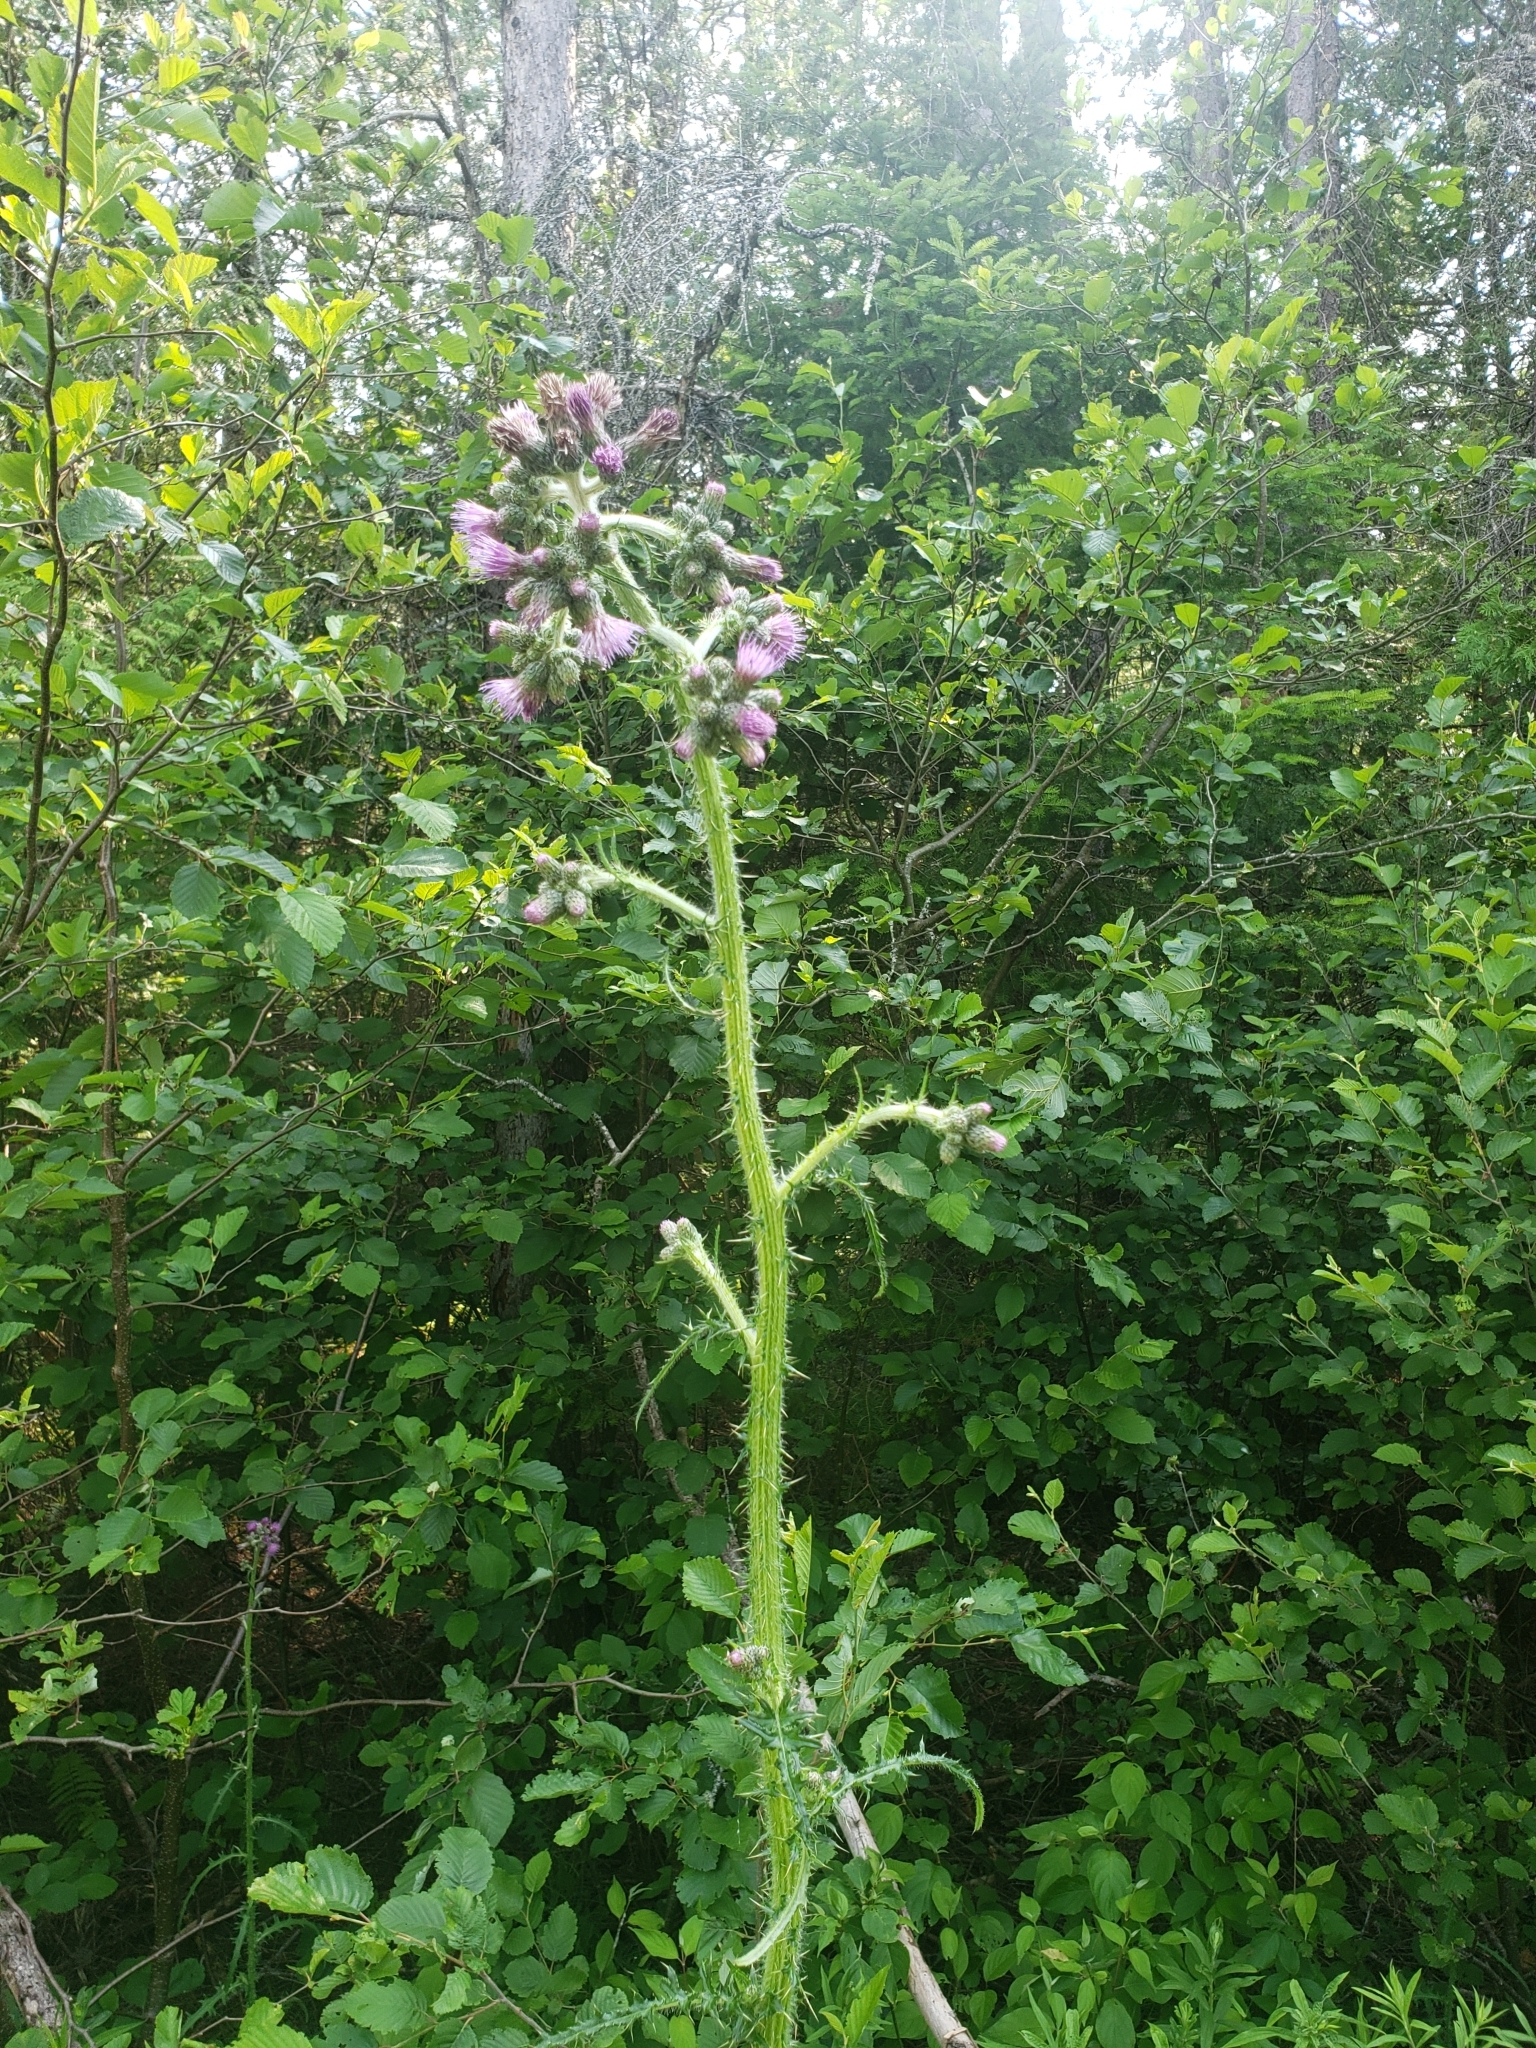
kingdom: Plantae
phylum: Tracheophyta
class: Magnoliopsida
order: Asterales
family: Asteraceae
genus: Cirsium
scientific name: Cirsium palustre
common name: Marsh thistle
